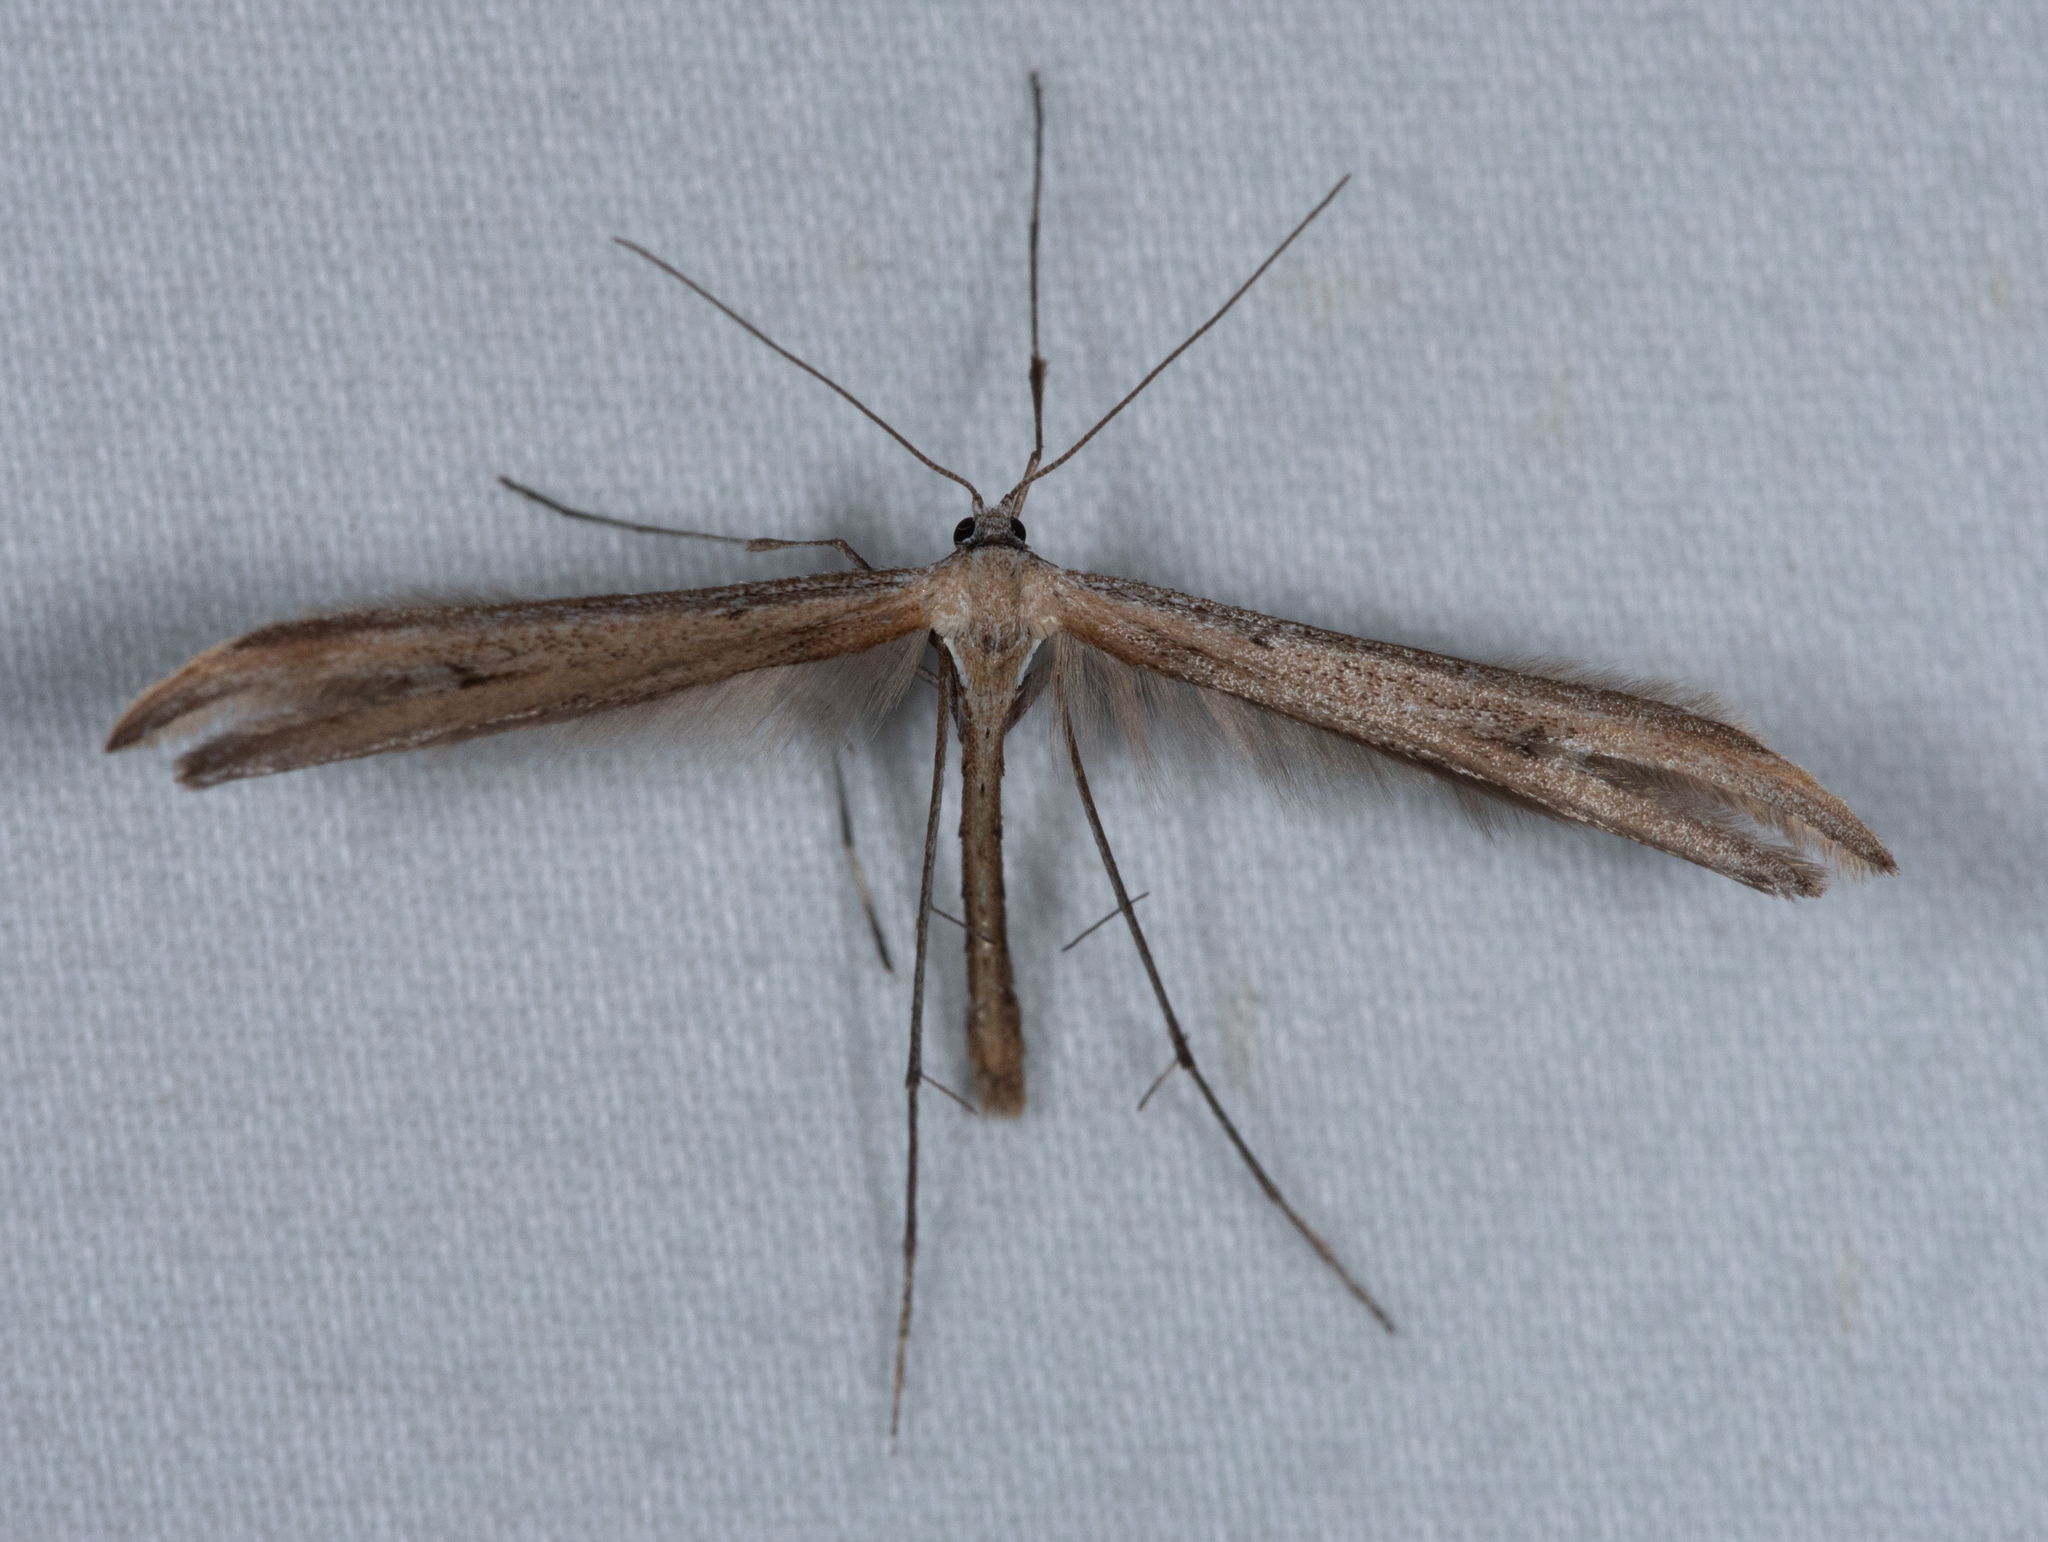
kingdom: Animalia
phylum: Arthropoda
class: Insecta
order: Lepidoptera
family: Pterophoridae
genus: Emmelina
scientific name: Emmelina monodactyla
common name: Common plume
